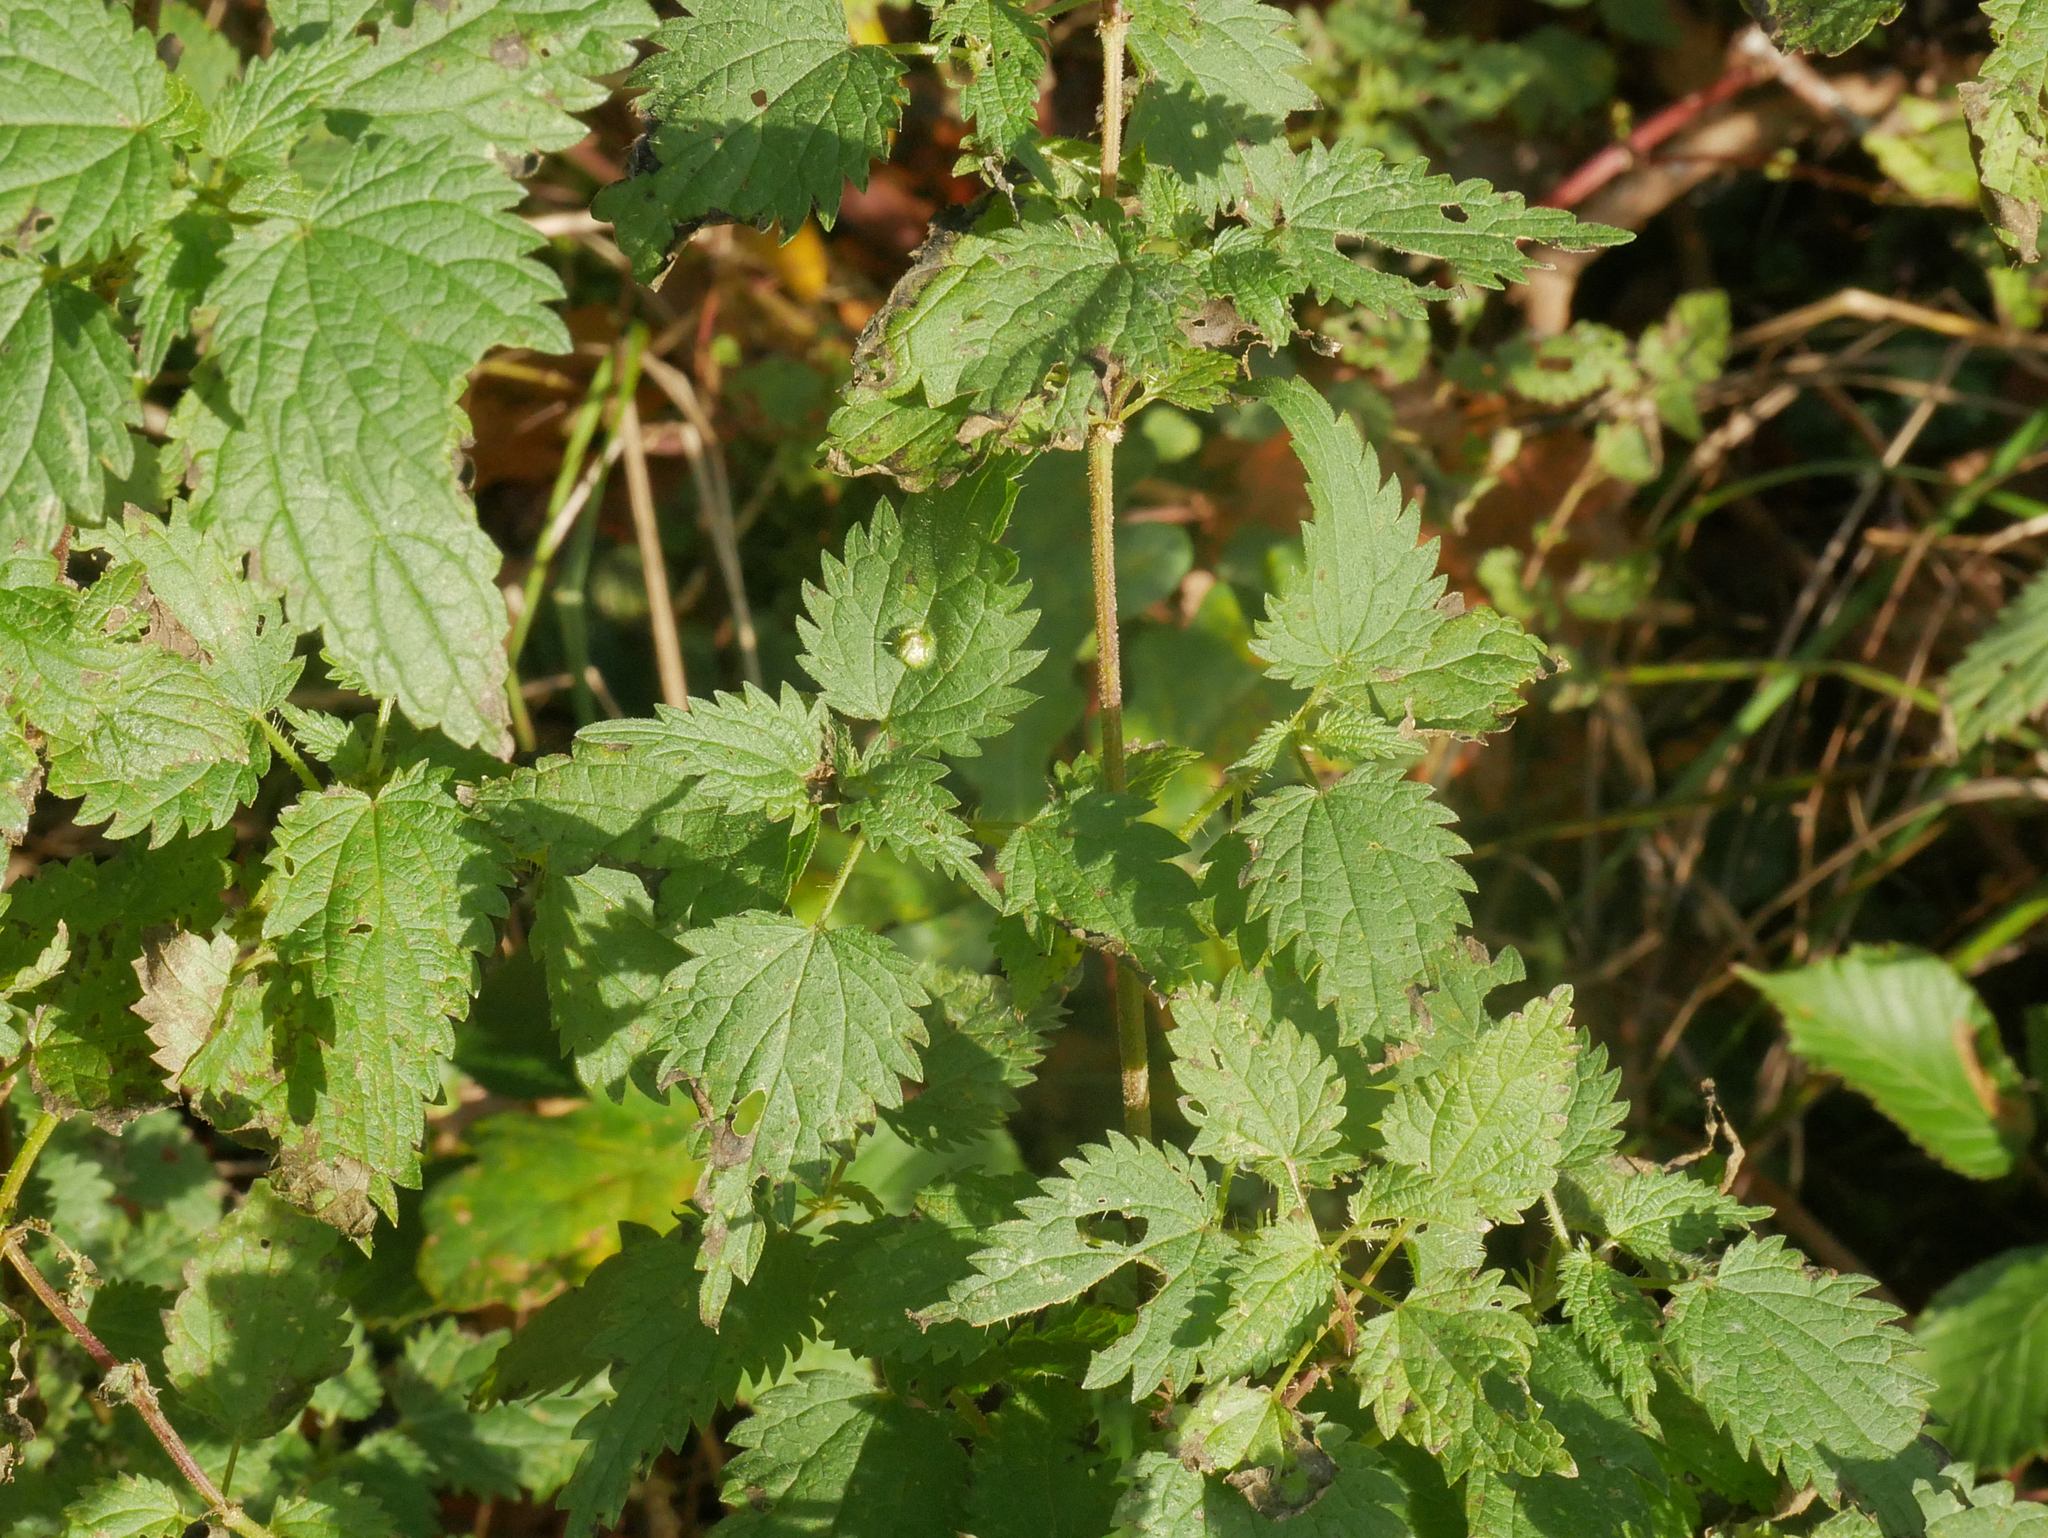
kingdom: Plantae
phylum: Tracheophyta
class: Magnoliopsida
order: Rosales
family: Urticaceae
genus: Urtica
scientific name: Urtica dioica
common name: Common nettle
